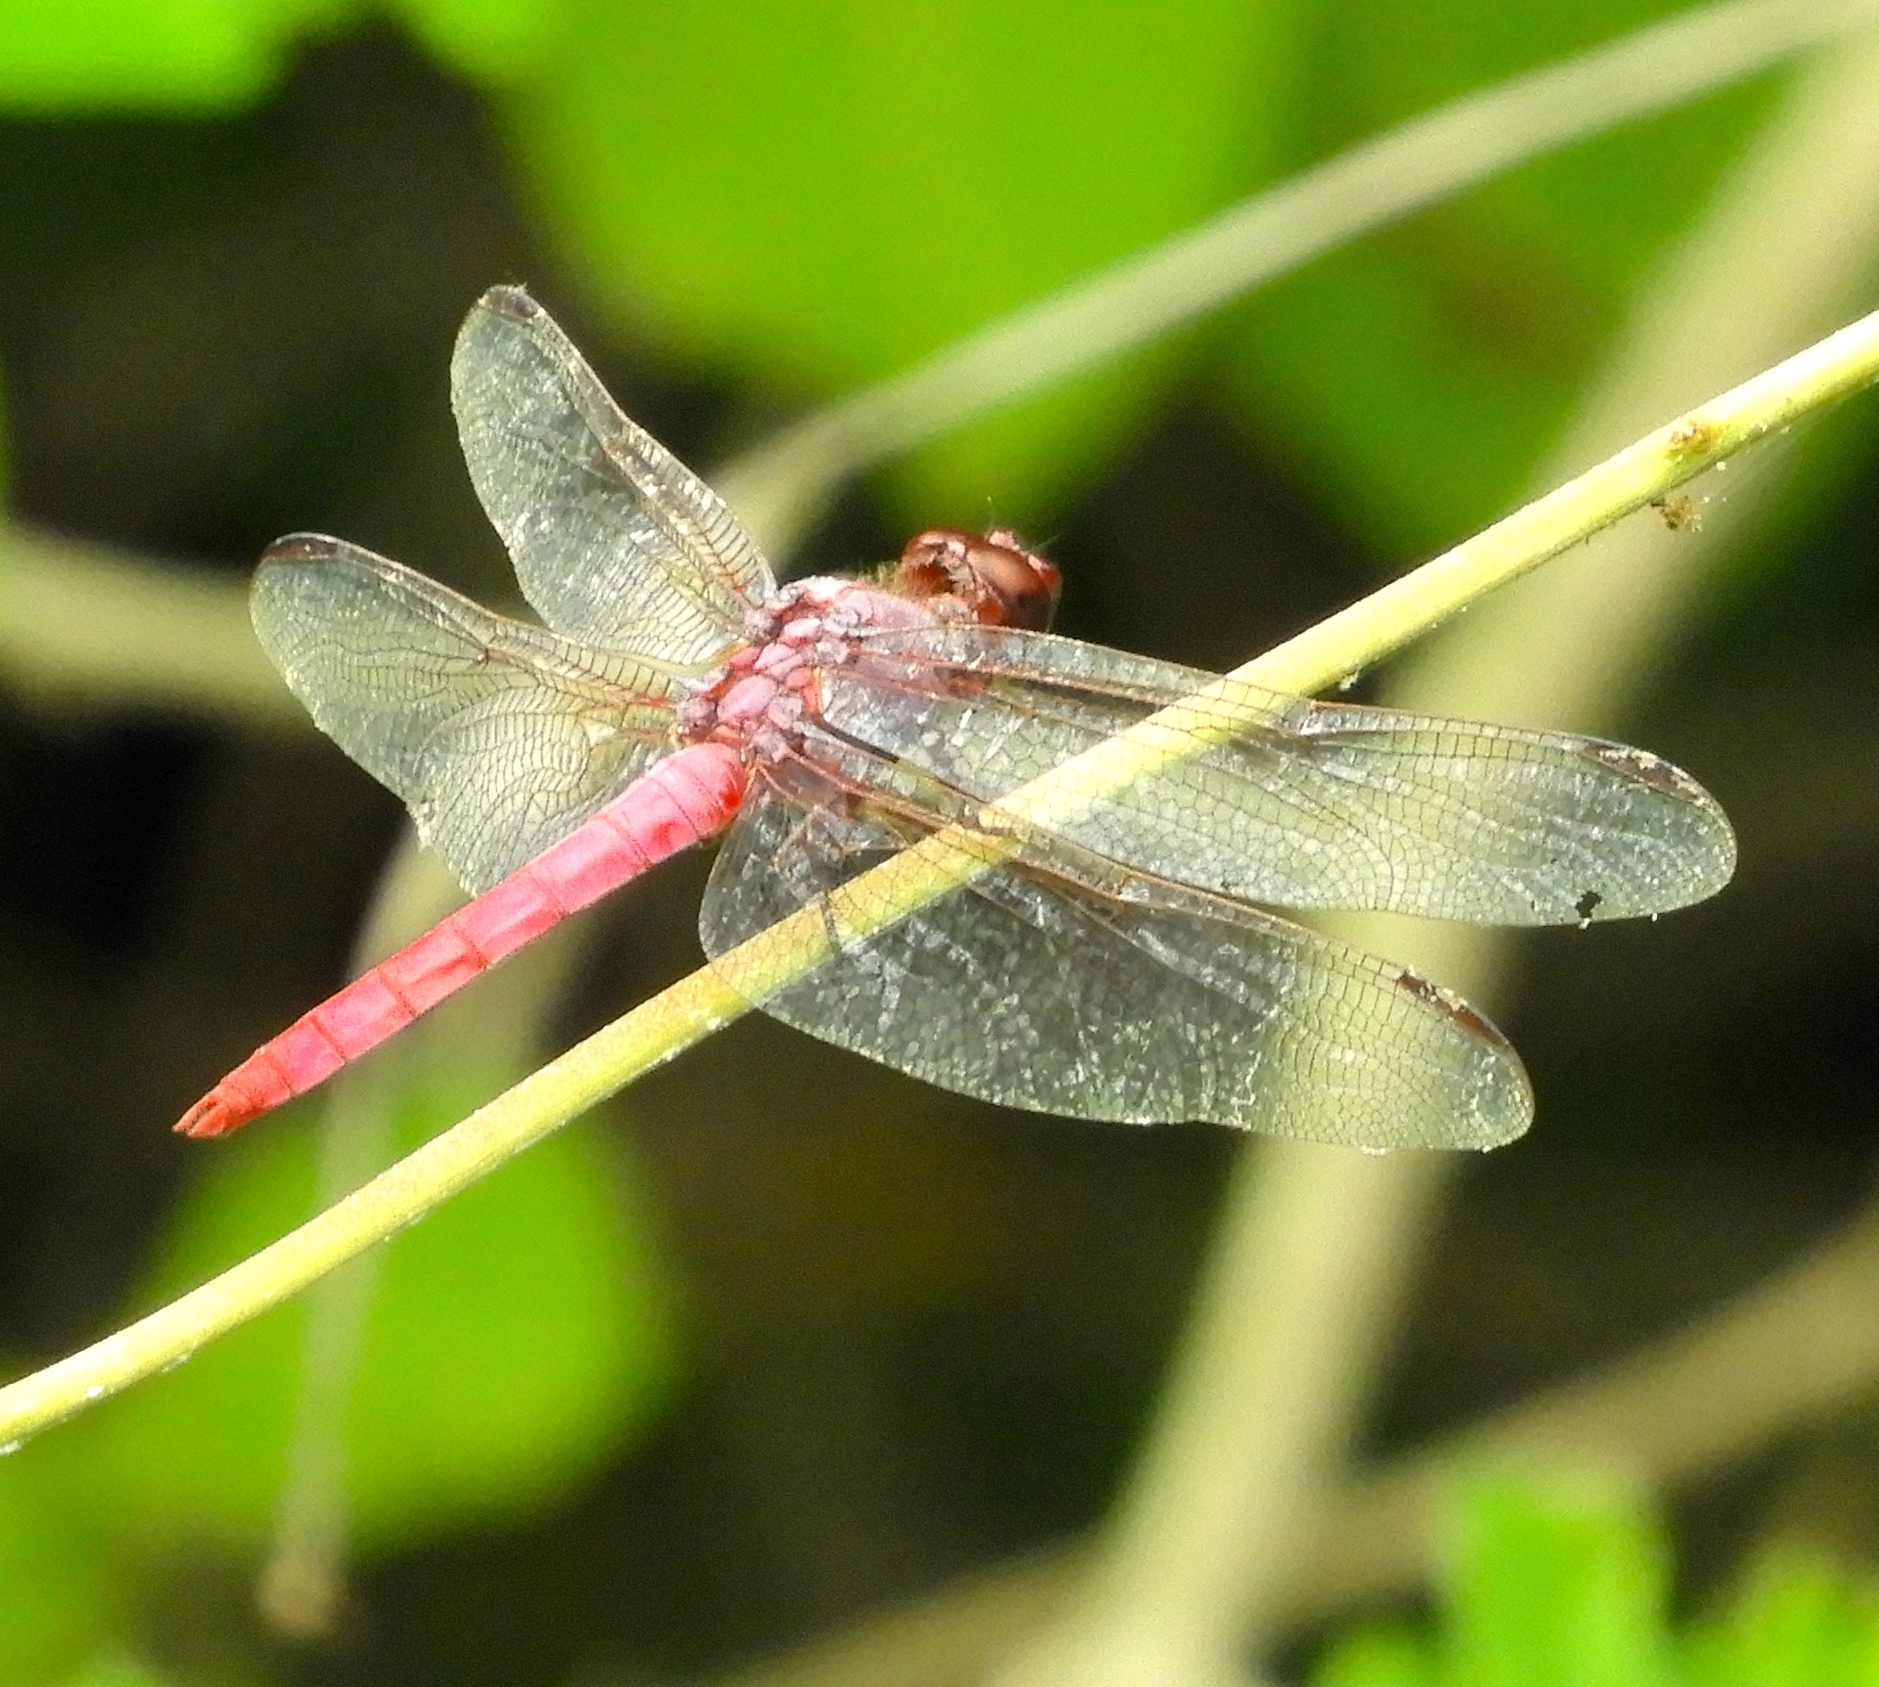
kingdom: Animalia
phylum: Arthropoda
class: Insecta
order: Odonata
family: Libellulidae
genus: Orthemis
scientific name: Orthemis
